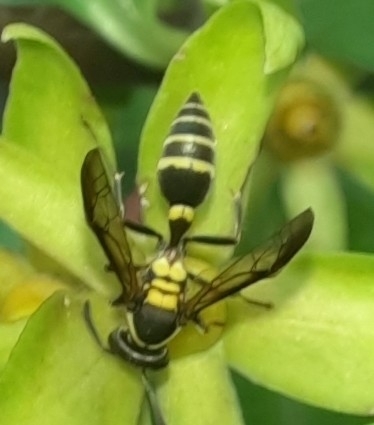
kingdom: Animalia
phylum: Arthropoda
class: Insecta
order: Hymenoptera
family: Eumenidae
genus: Polybia
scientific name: Polybia occidentalis
